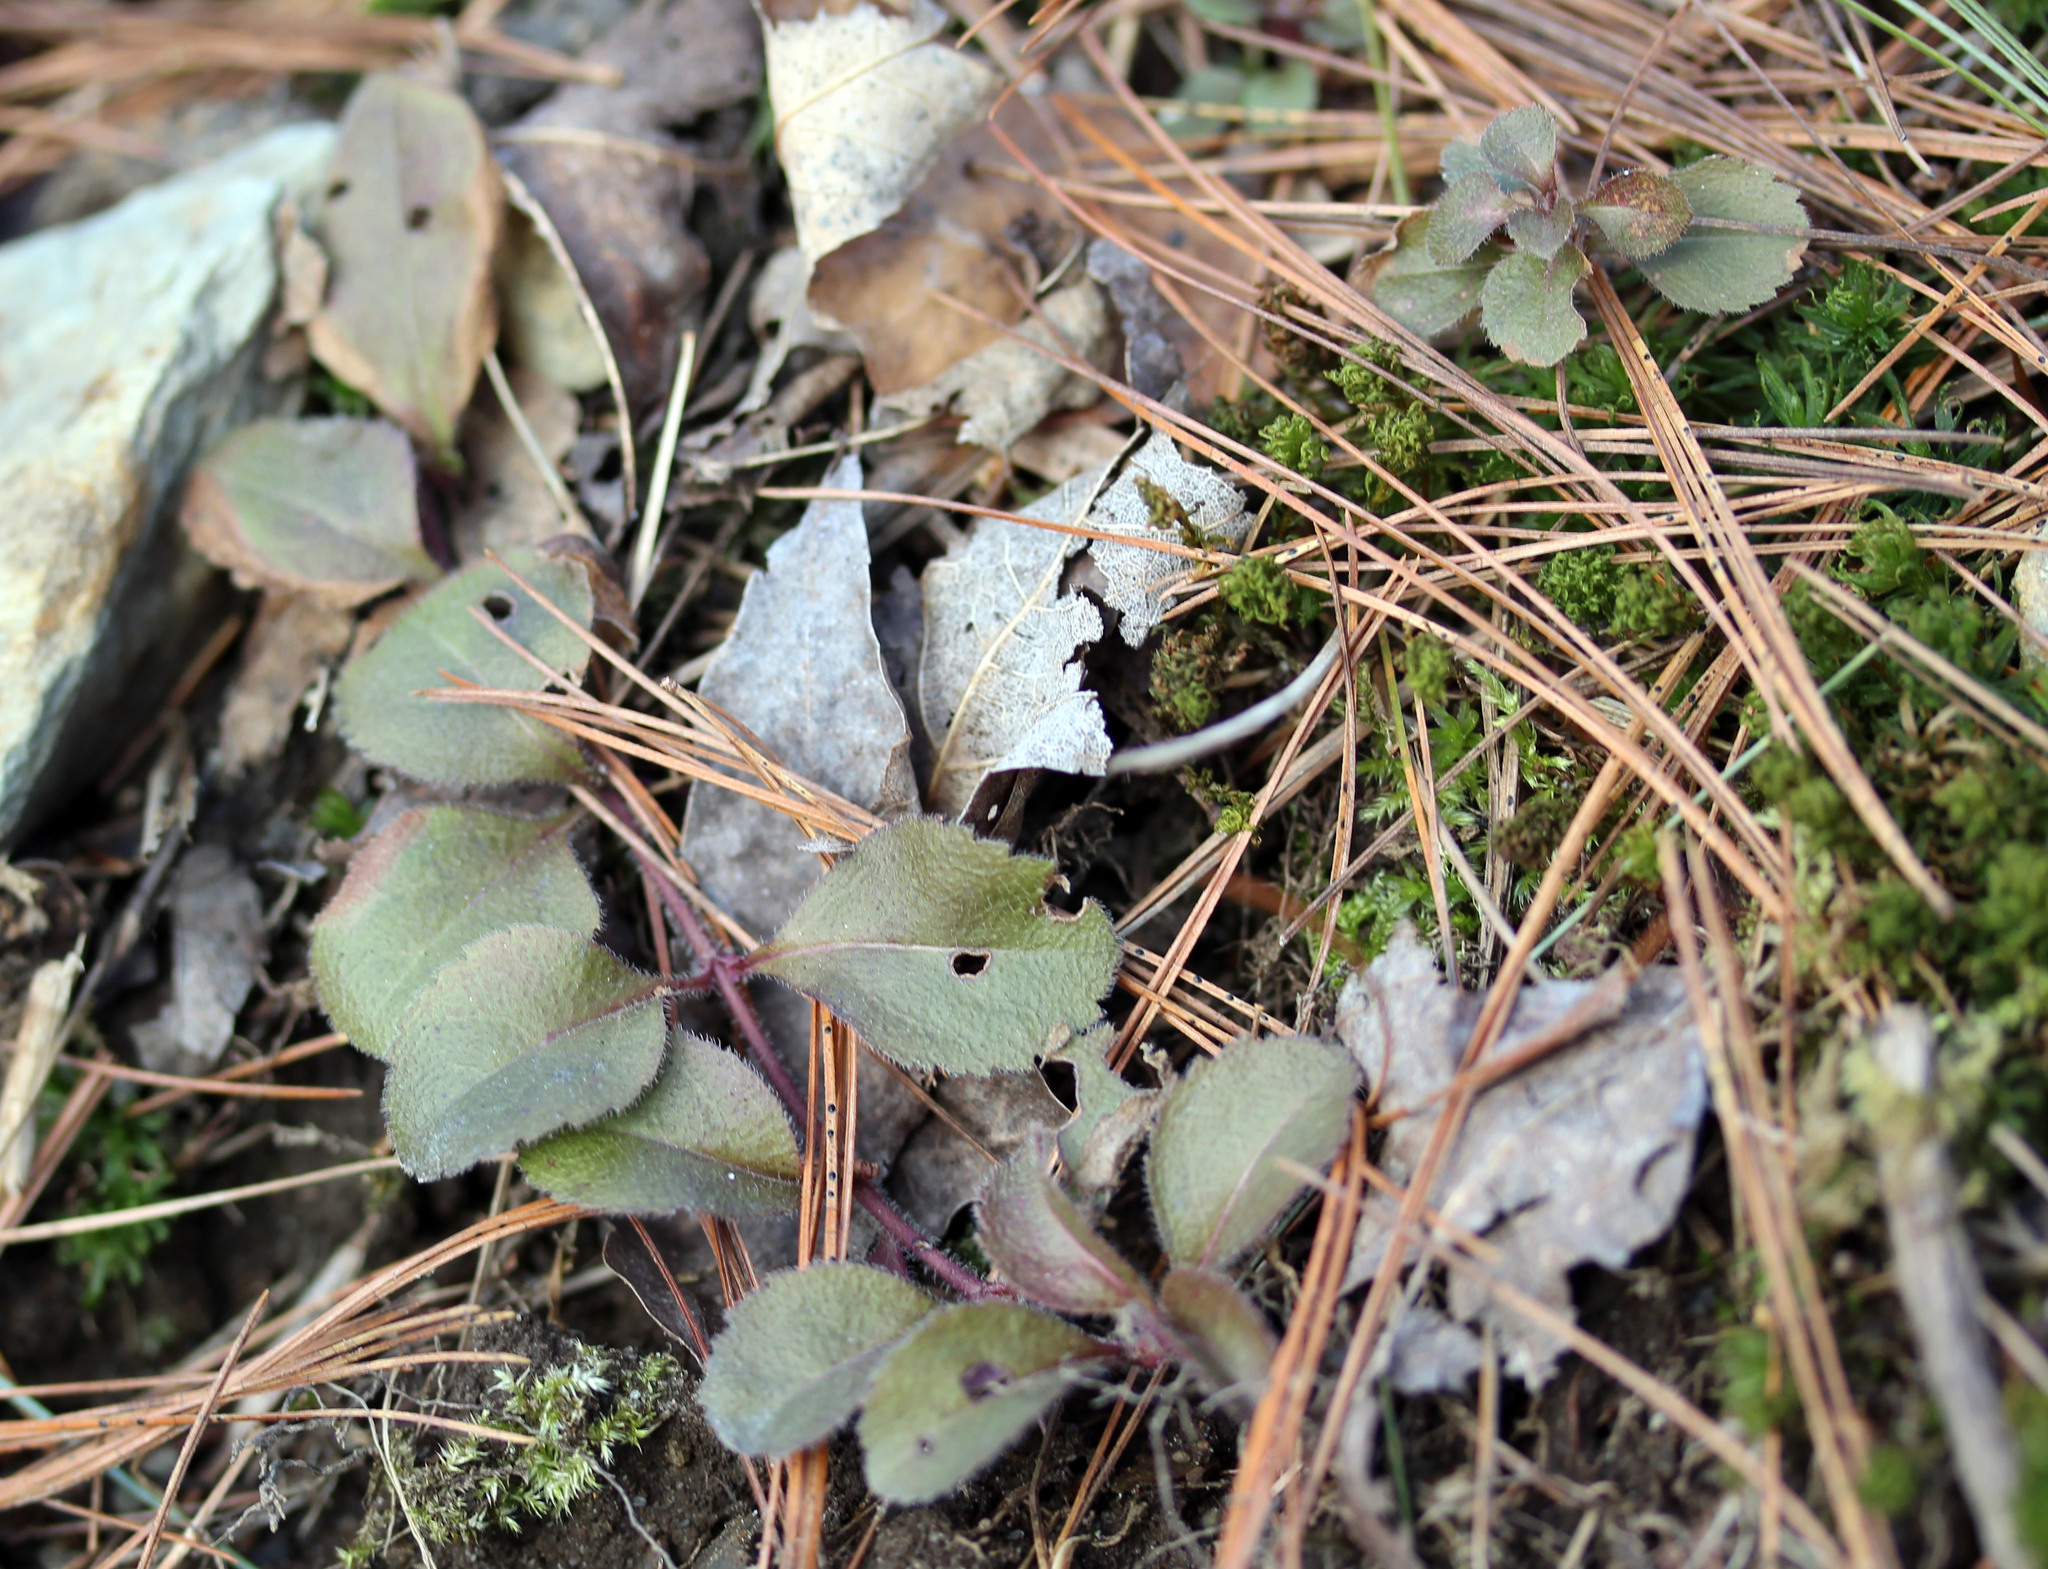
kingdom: Plantae
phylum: Tracheophyta
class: Magnoliopsida
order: Lamiales
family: Plantaginaceae
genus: Veronica
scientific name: Veronica officinalis
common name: Common speedwell
